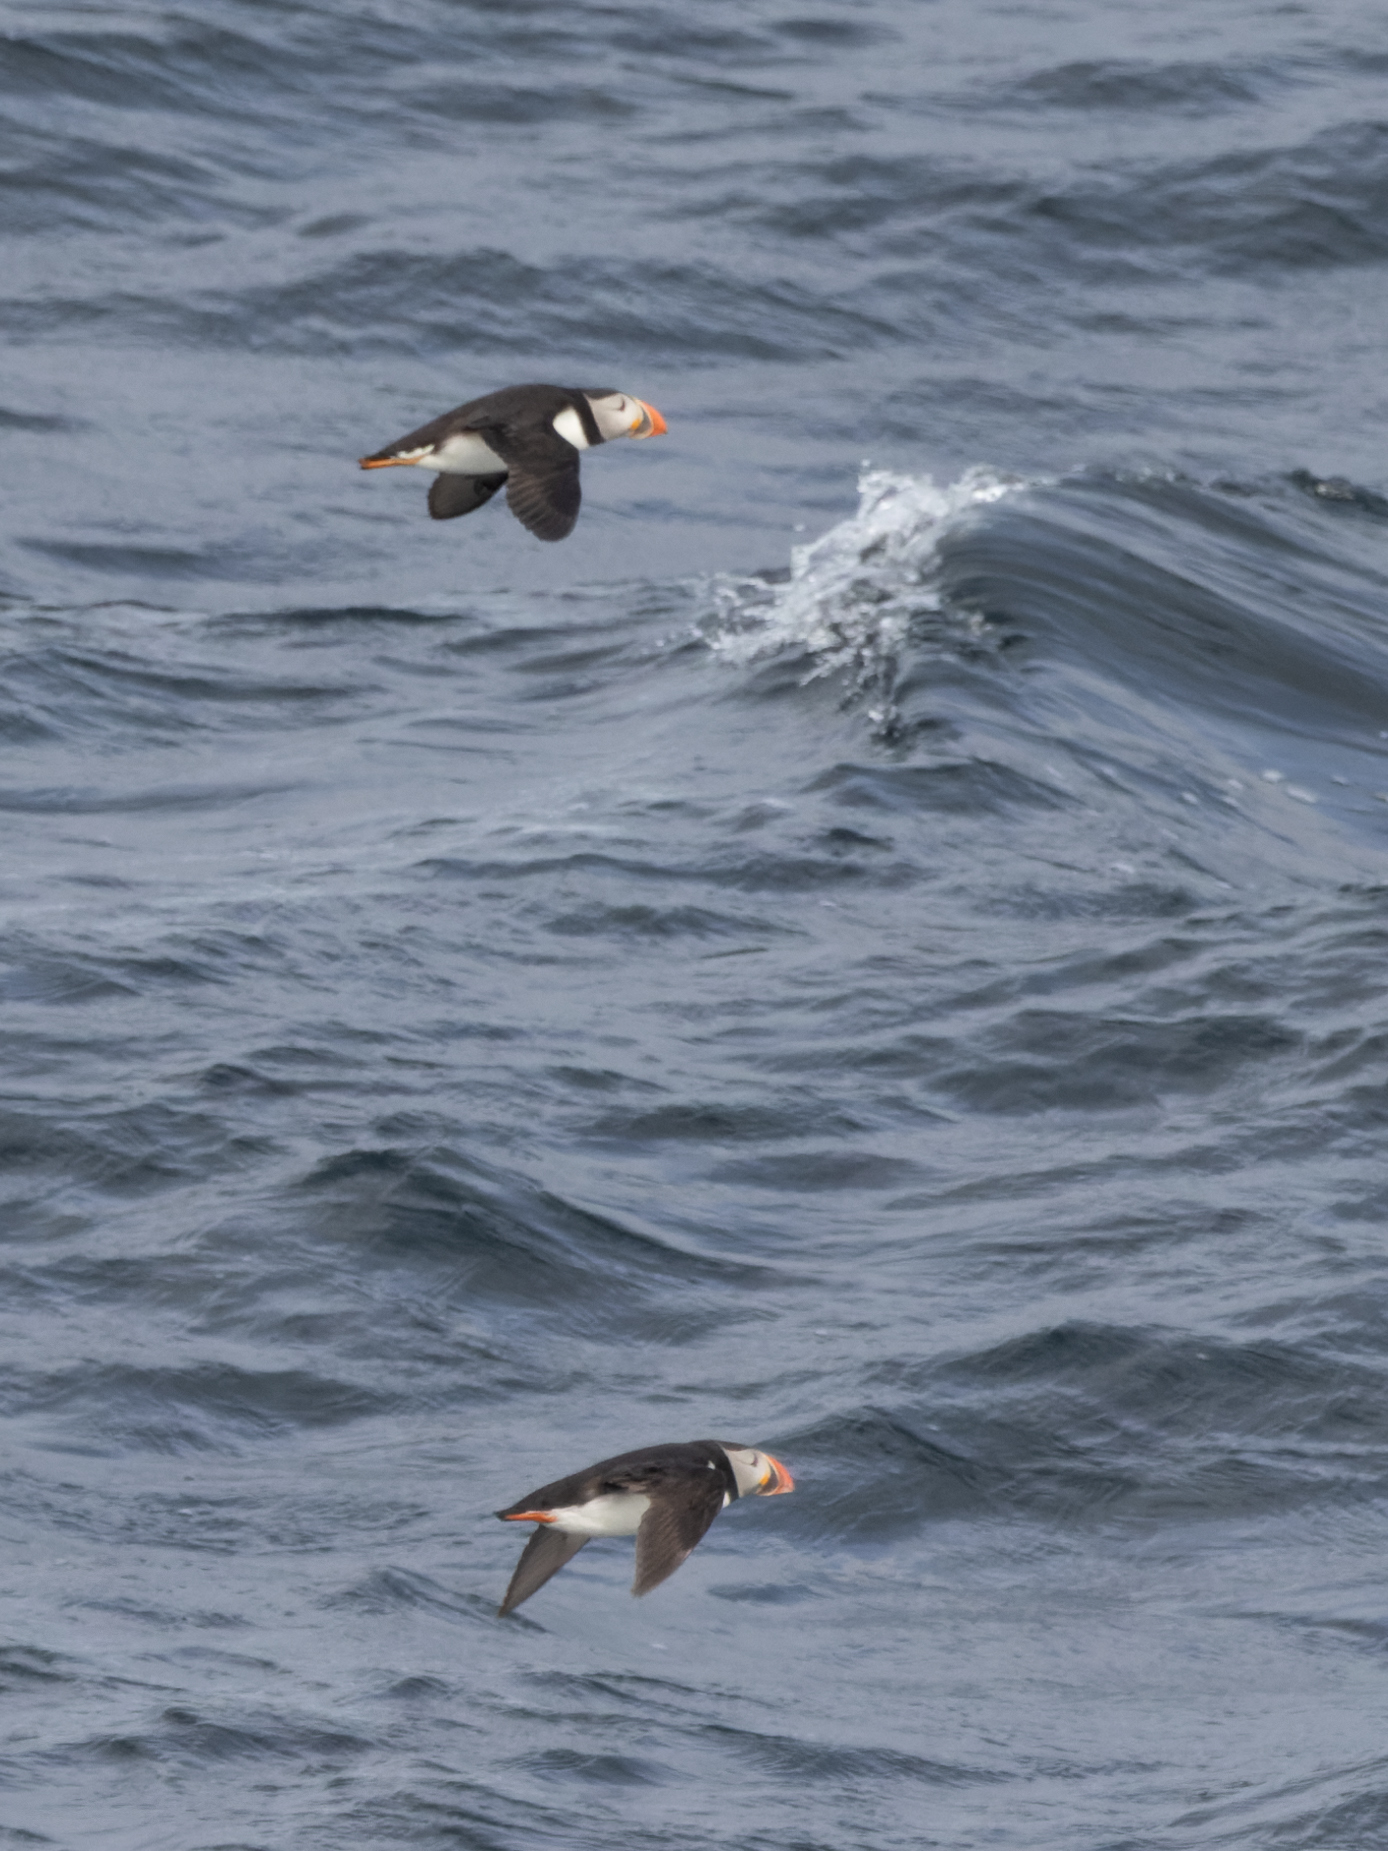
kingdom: Animalia
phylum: Chordata
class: Aves
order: Charadriiformes
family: Alcidae
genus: Fratercula
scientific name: Fratercula arctica
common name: Atlantic puffin
